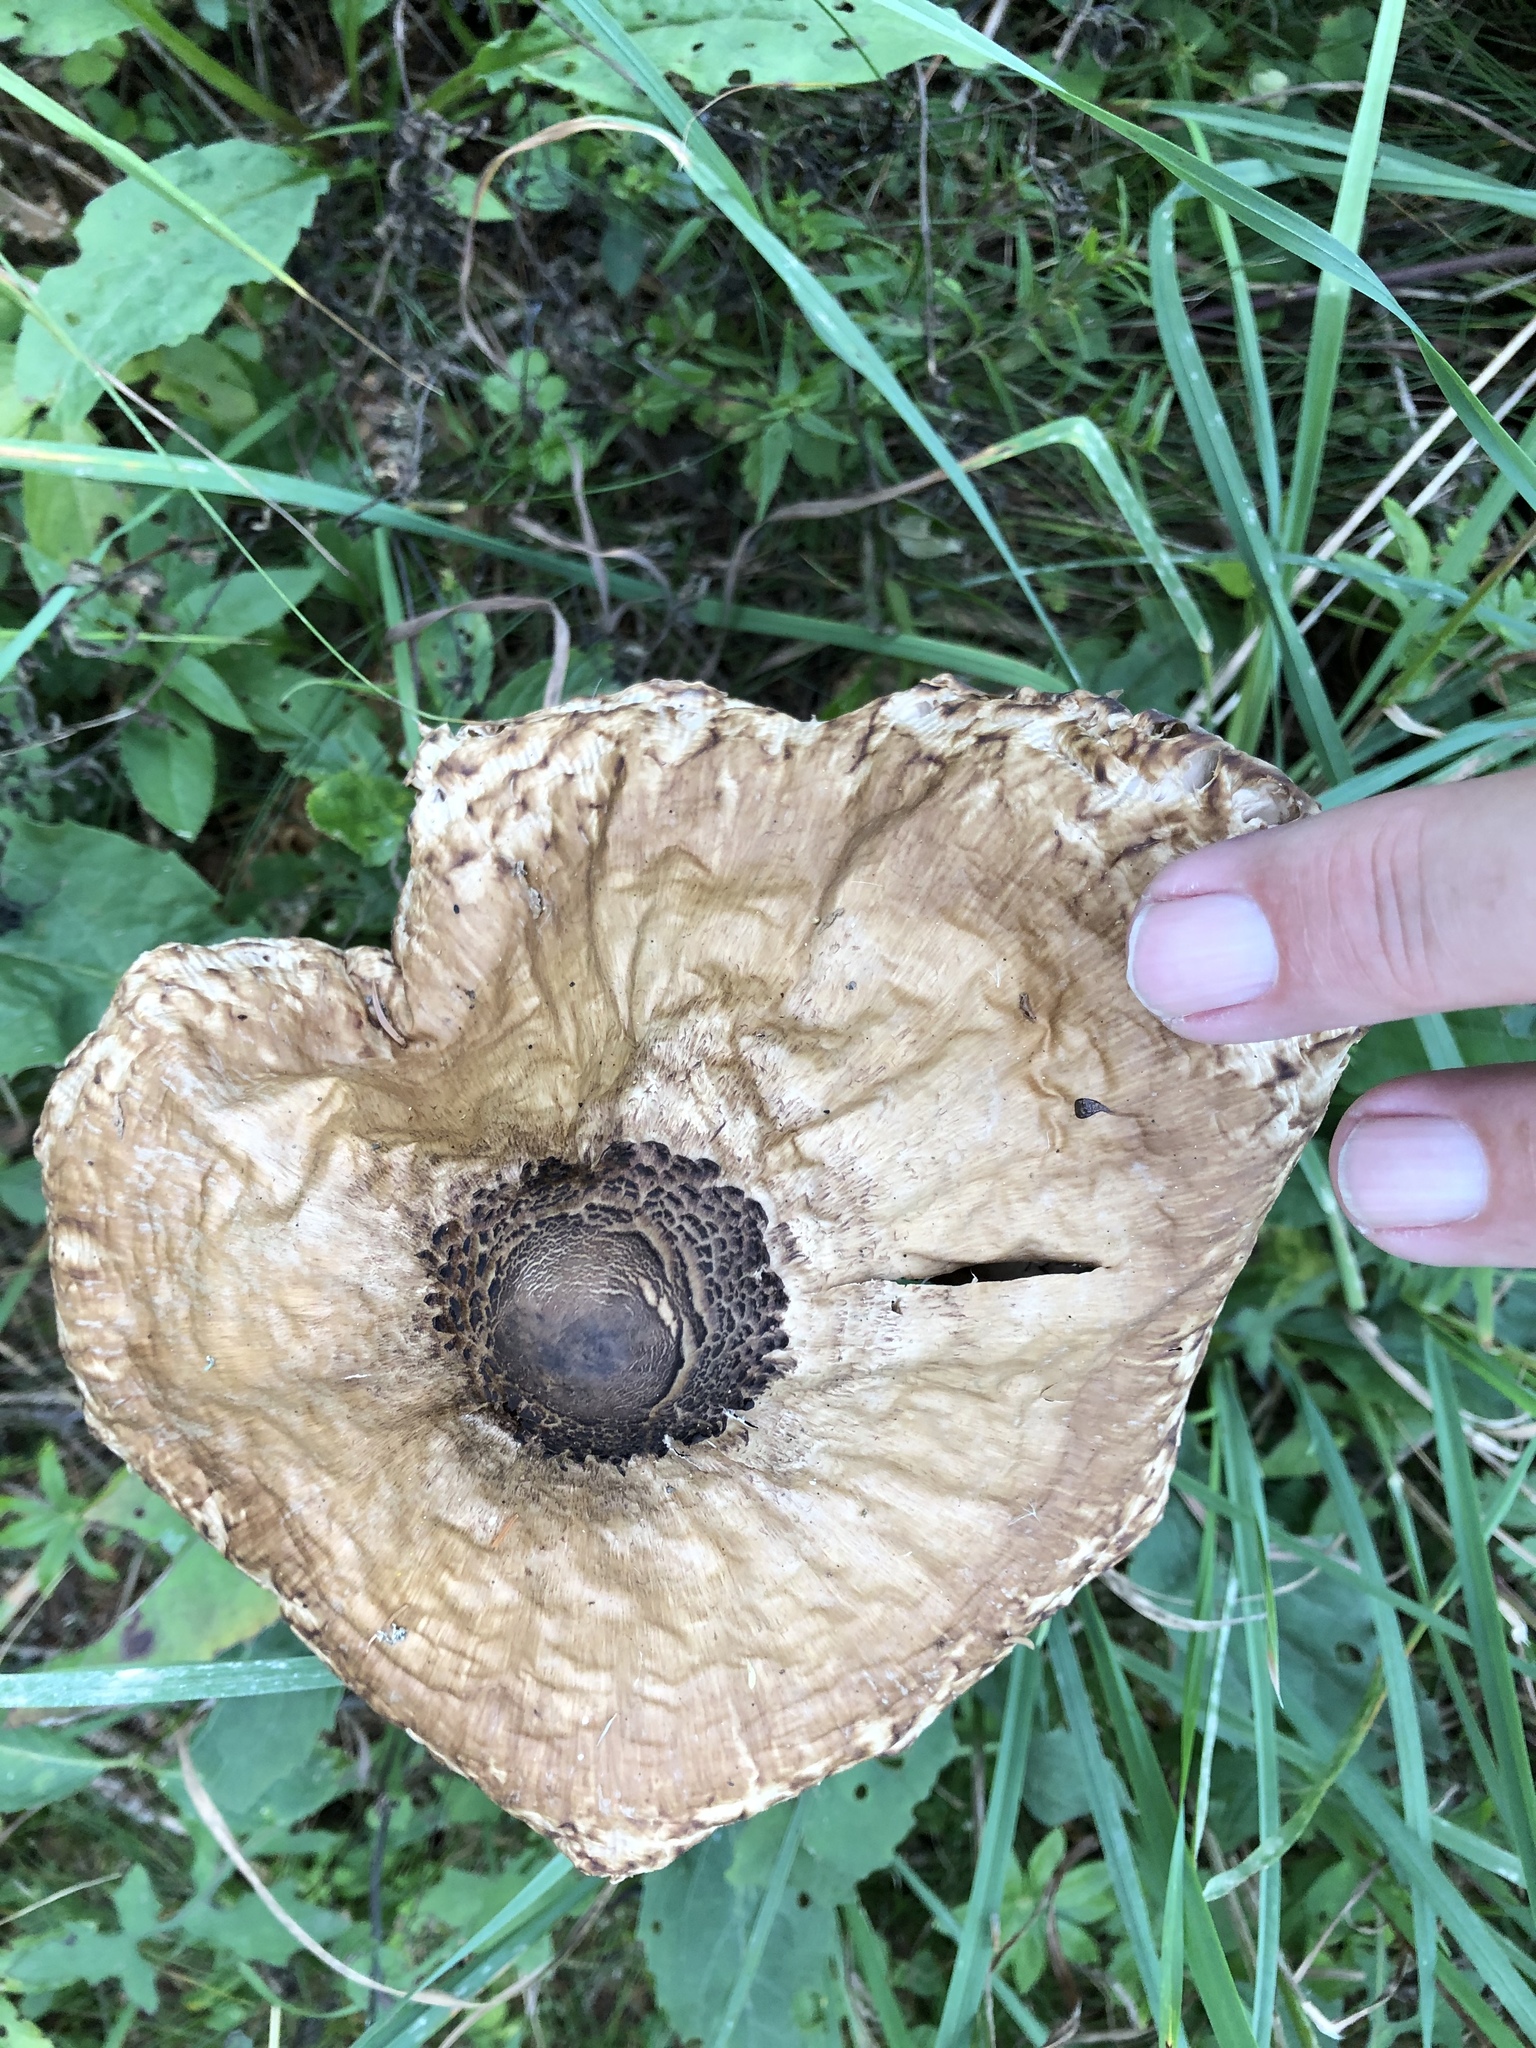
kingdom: Fungi
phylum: Basidiomycota
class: Agaricomycetes
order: Agaricales
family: Agaricaceae
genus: Macrolepiota
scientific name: Macrolepiota procera
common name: Parasol
